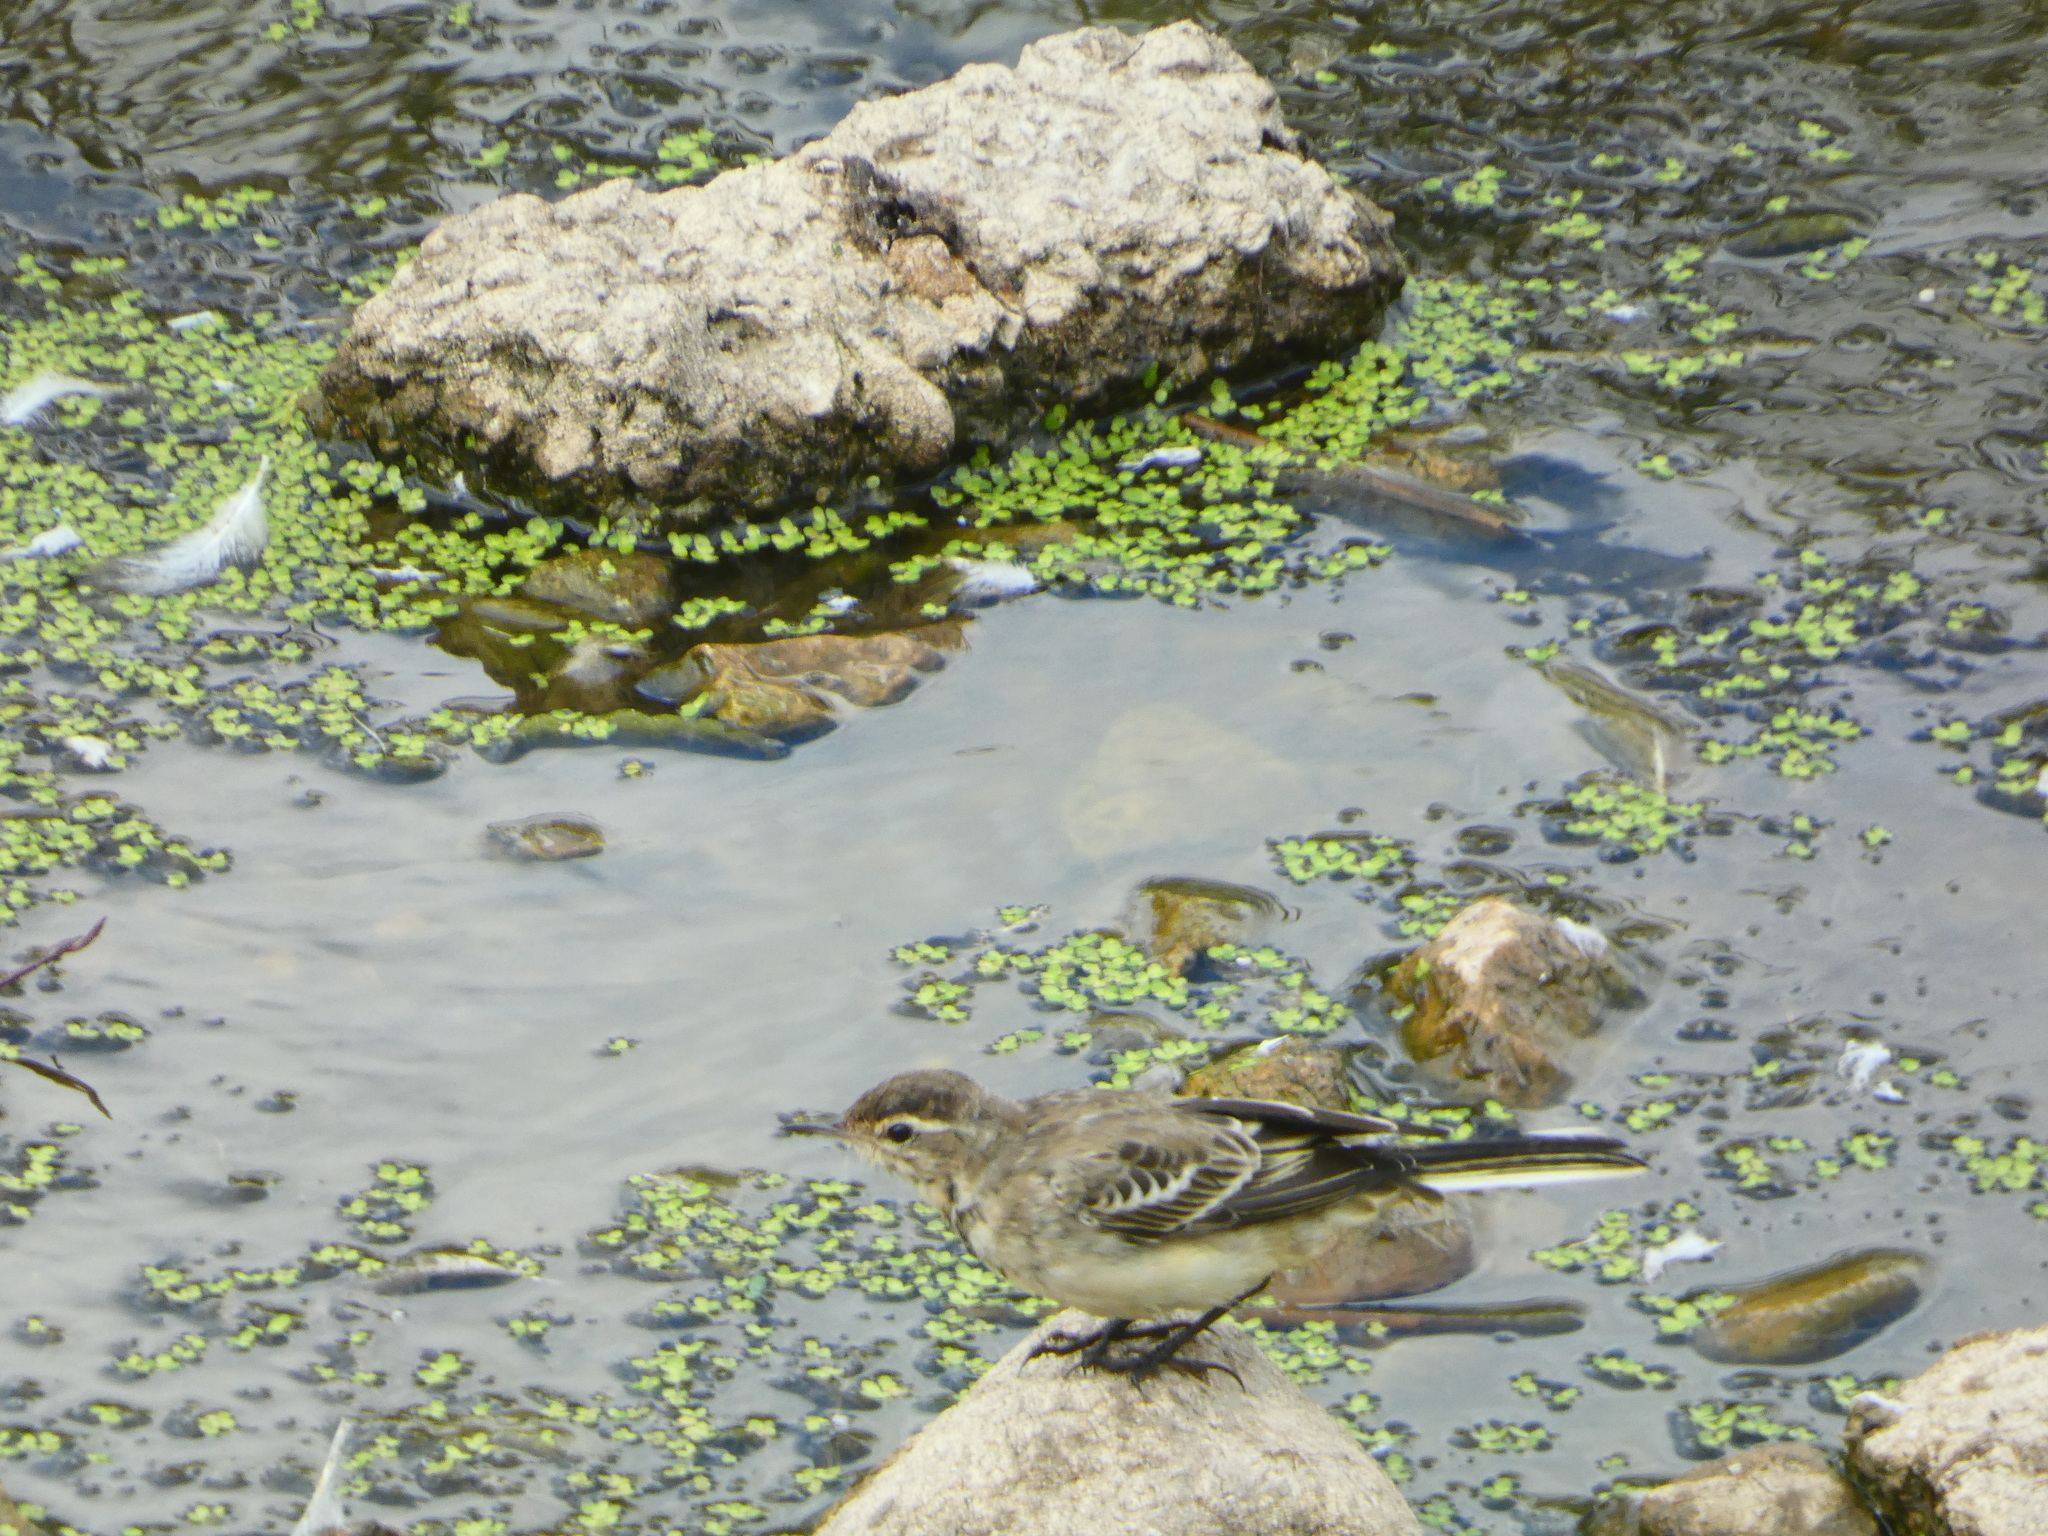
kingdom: Animalia
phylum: Chordata
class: Aves
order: Passeriformes
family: Motacillidae
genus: Motacilla
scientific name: Motacilla flava
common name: Western yellow wagtail
